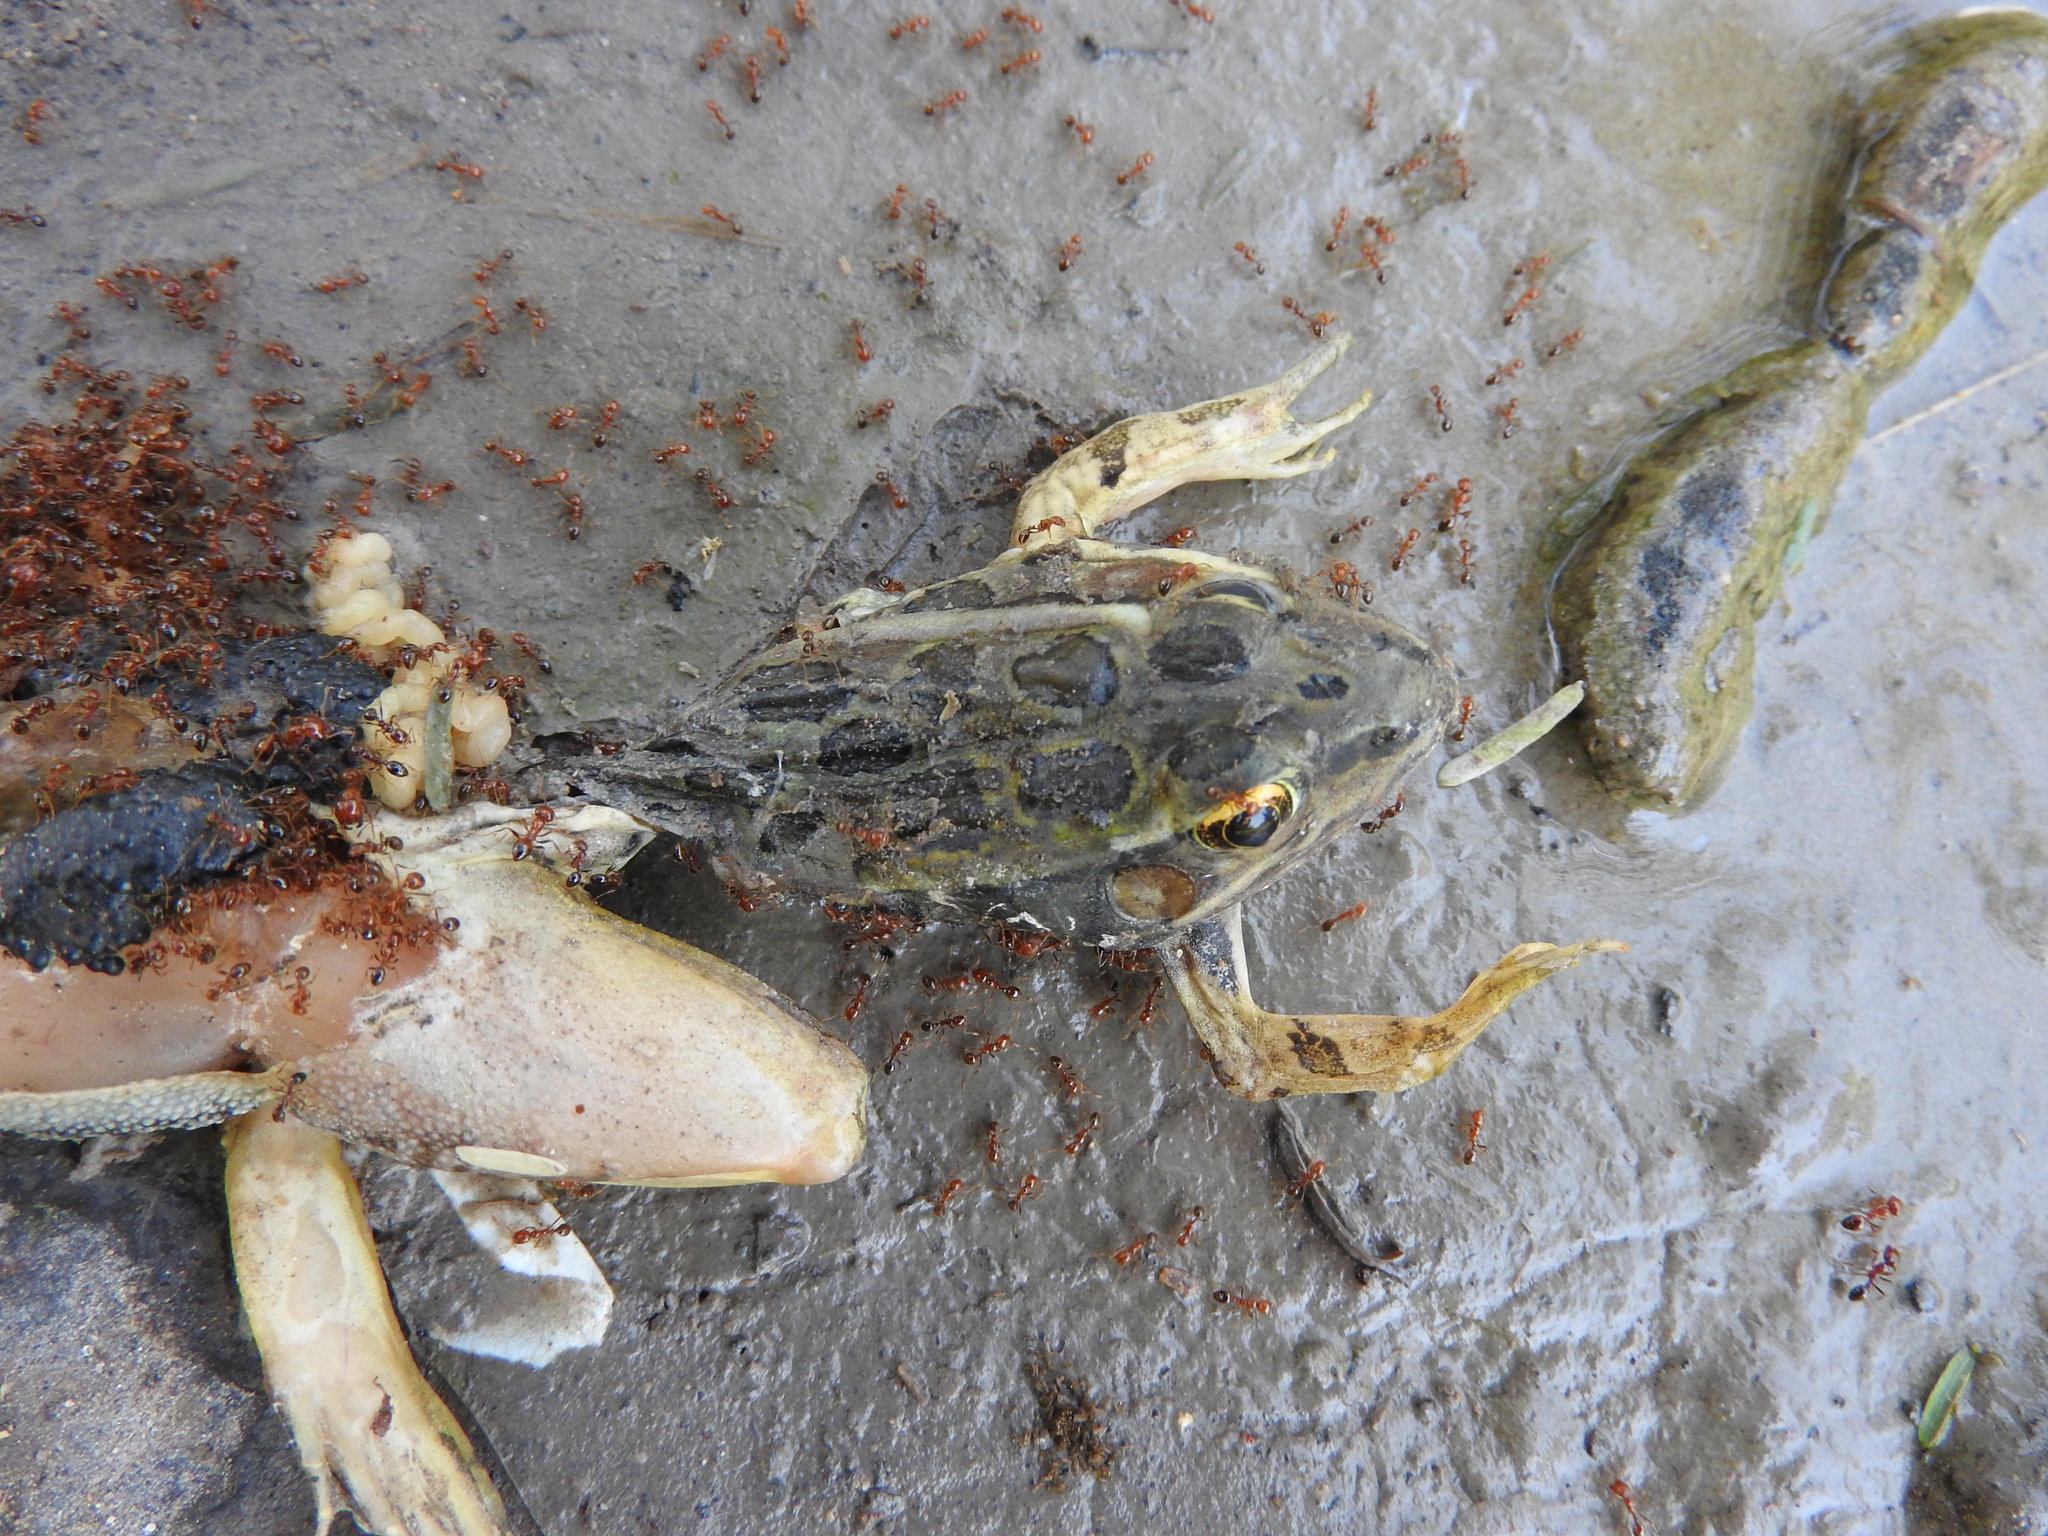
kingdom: Animalia
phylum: Chordata
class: Amphibia
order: Anura
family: Ranidae
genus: Lithobates
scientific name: Lithobates neovolcanicus
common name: Transverse volcanic leopard frog
